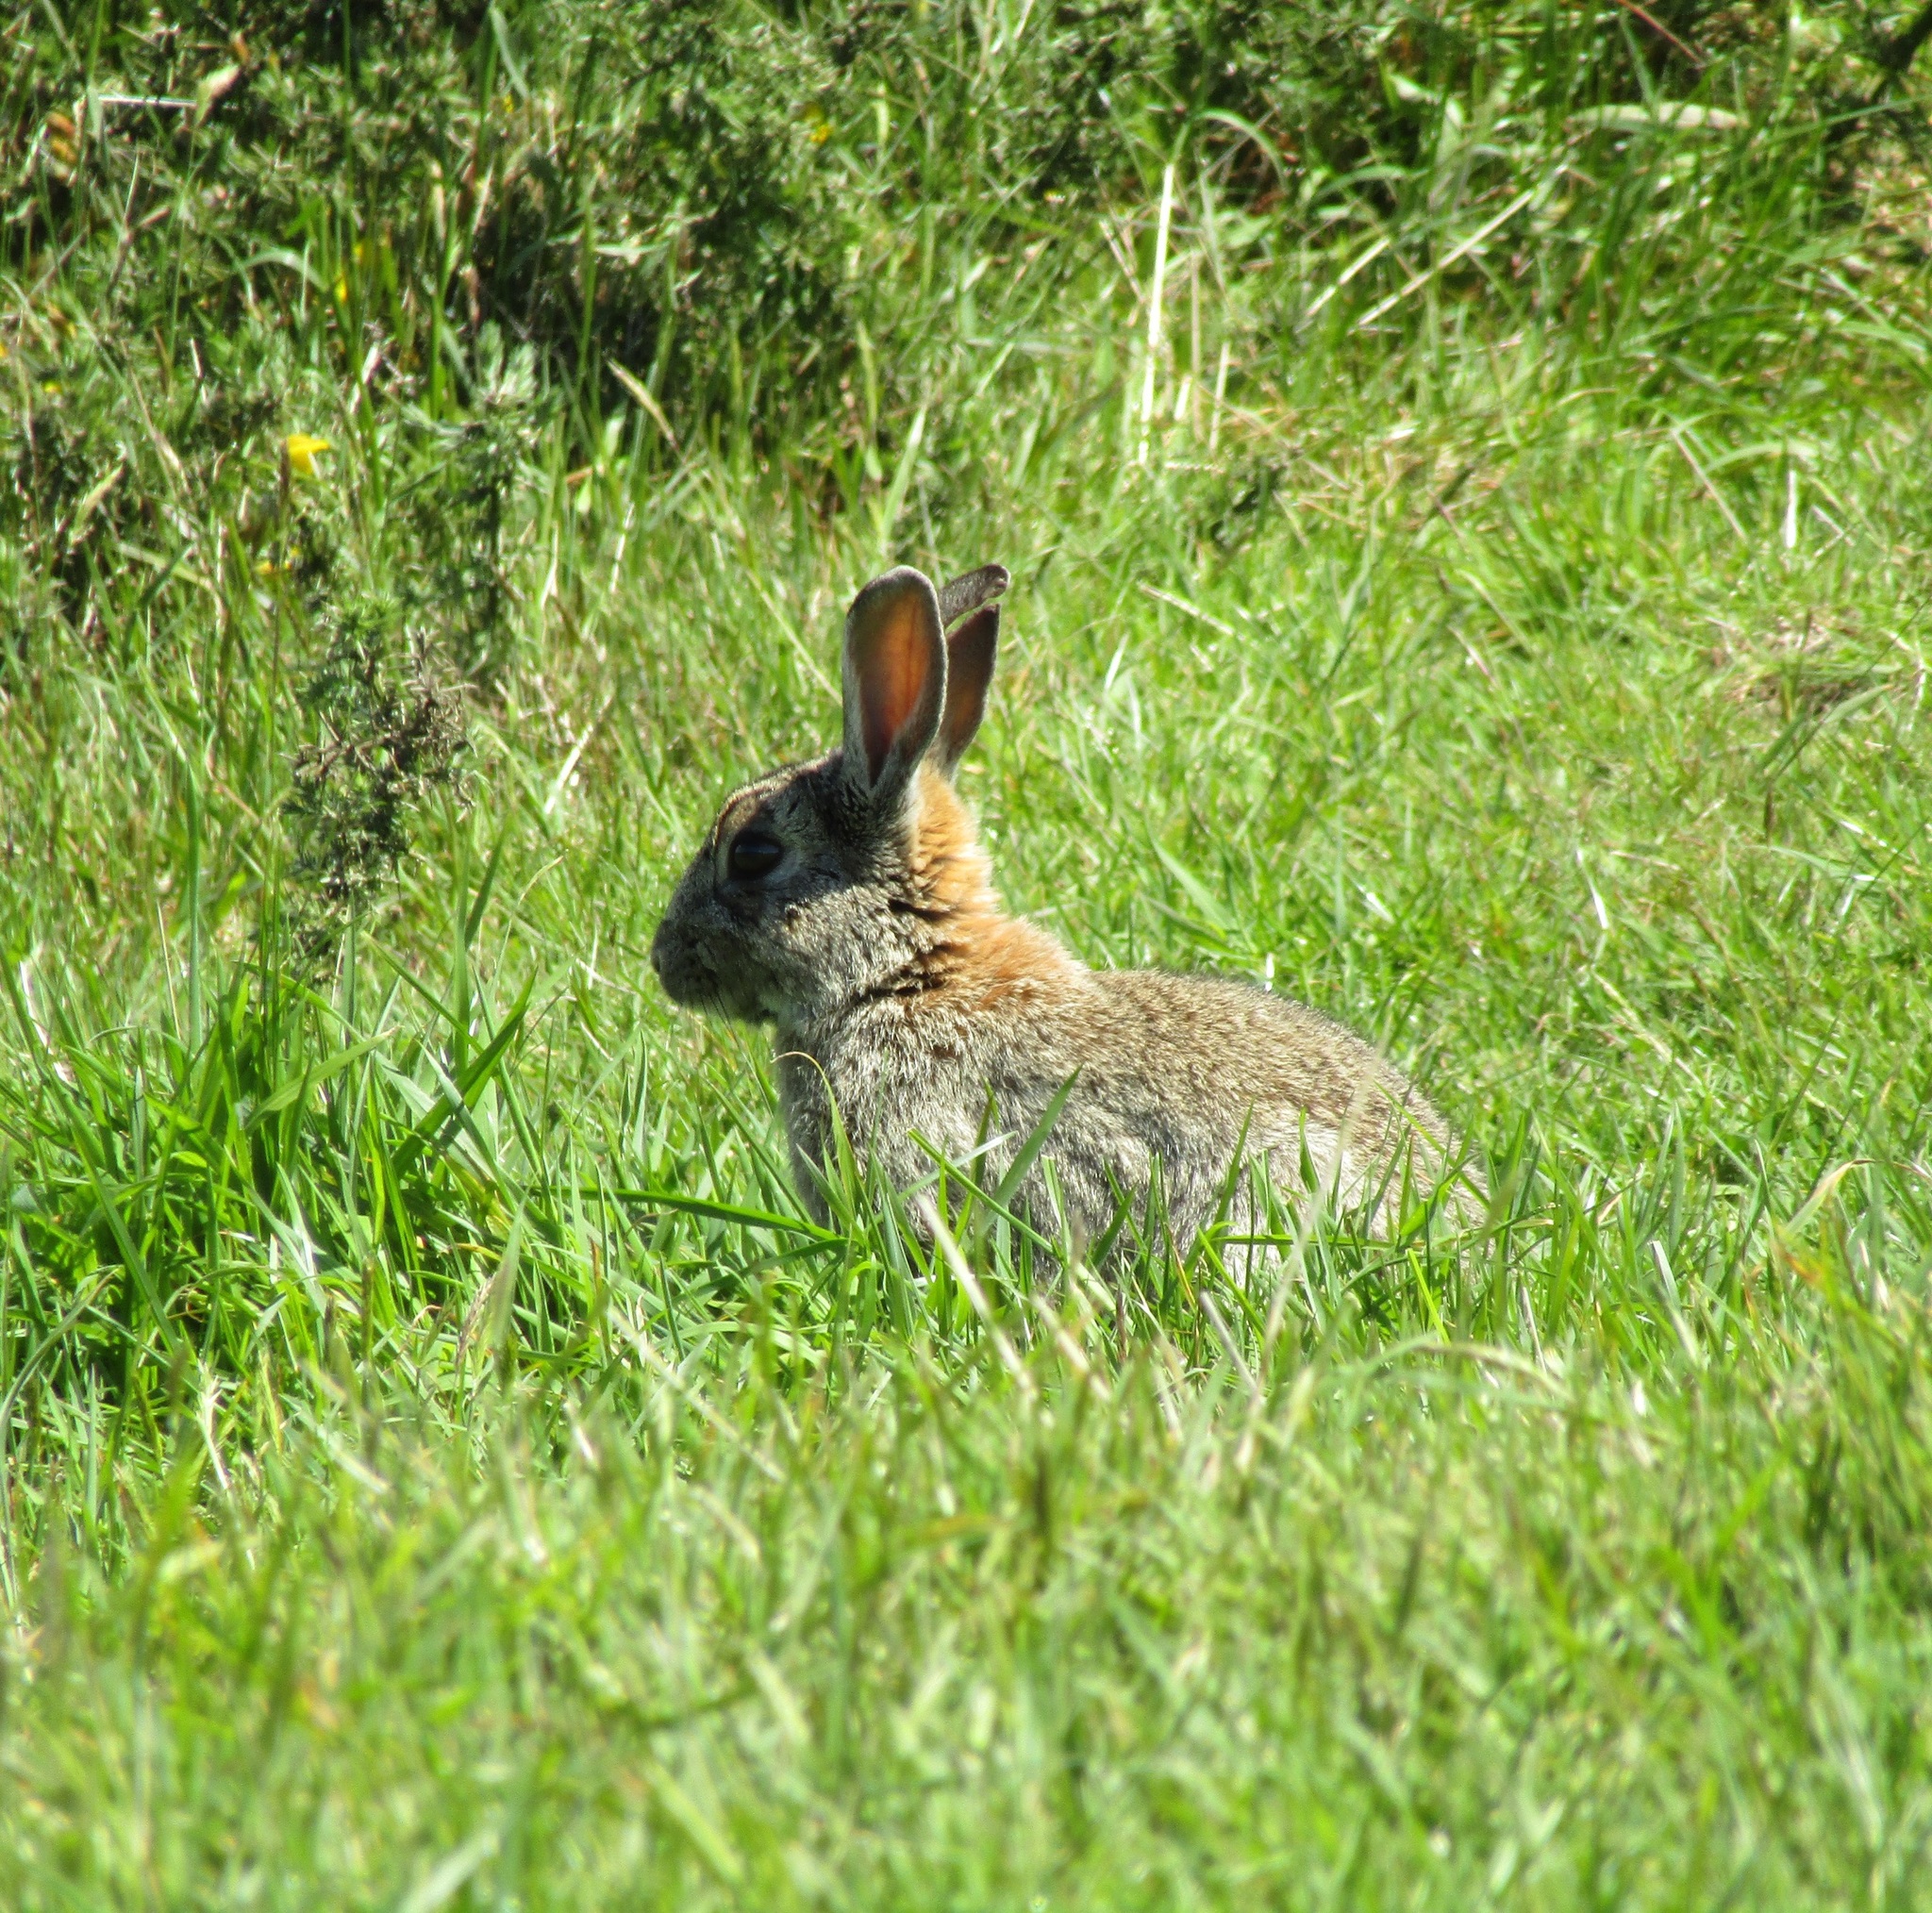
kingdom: Animalia
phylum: Chordata
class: Mammalia
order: Lagomorpha
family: Leporidae
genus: Oryctolagus
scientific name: Oryctolagus cuniculus
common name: European rabbit
